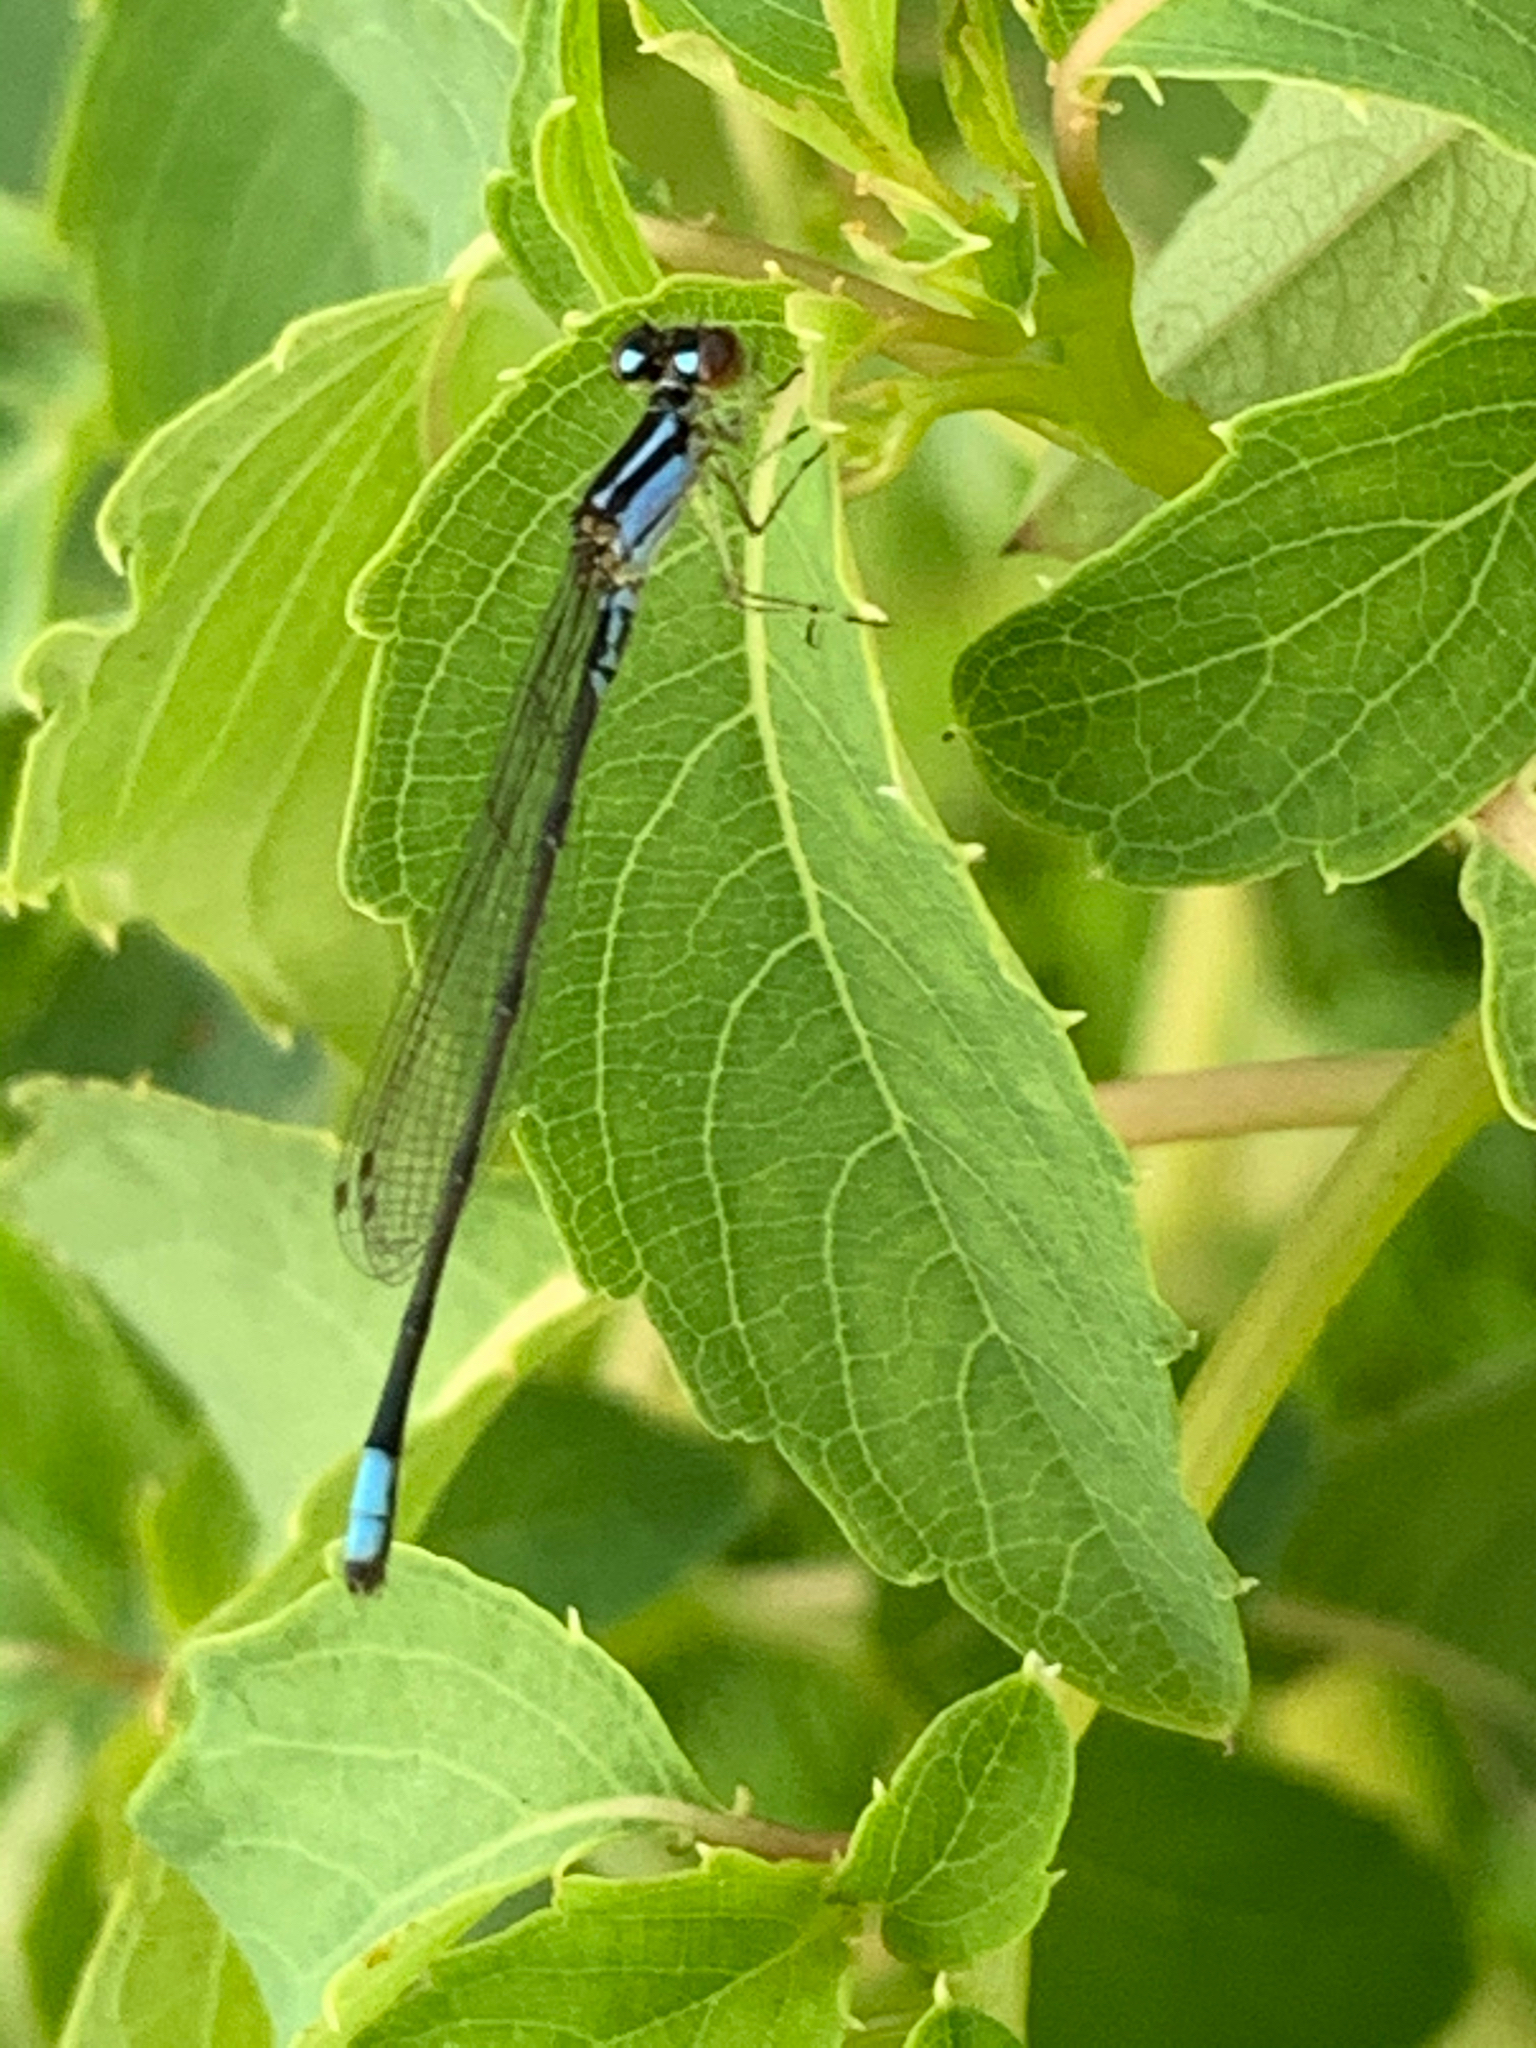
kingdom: Animalia
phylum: Arthropoda
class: Insecta
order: Odonata
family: Coenagrionidae
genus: Enallagma
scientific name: Enallagma geminatum
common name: Skimming bluet
